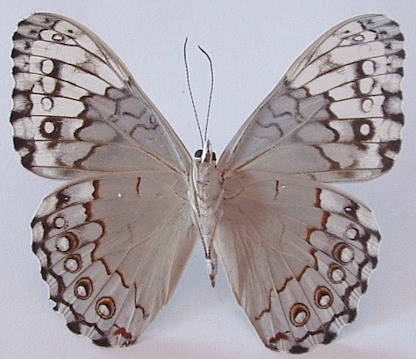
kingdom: Animalia
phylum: Arthropoda
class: Insecta
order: Lepidoptera
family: Nymphalidae
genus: Hamadryas
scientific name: Hamadryas glauconome
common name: Glaucous cracker
